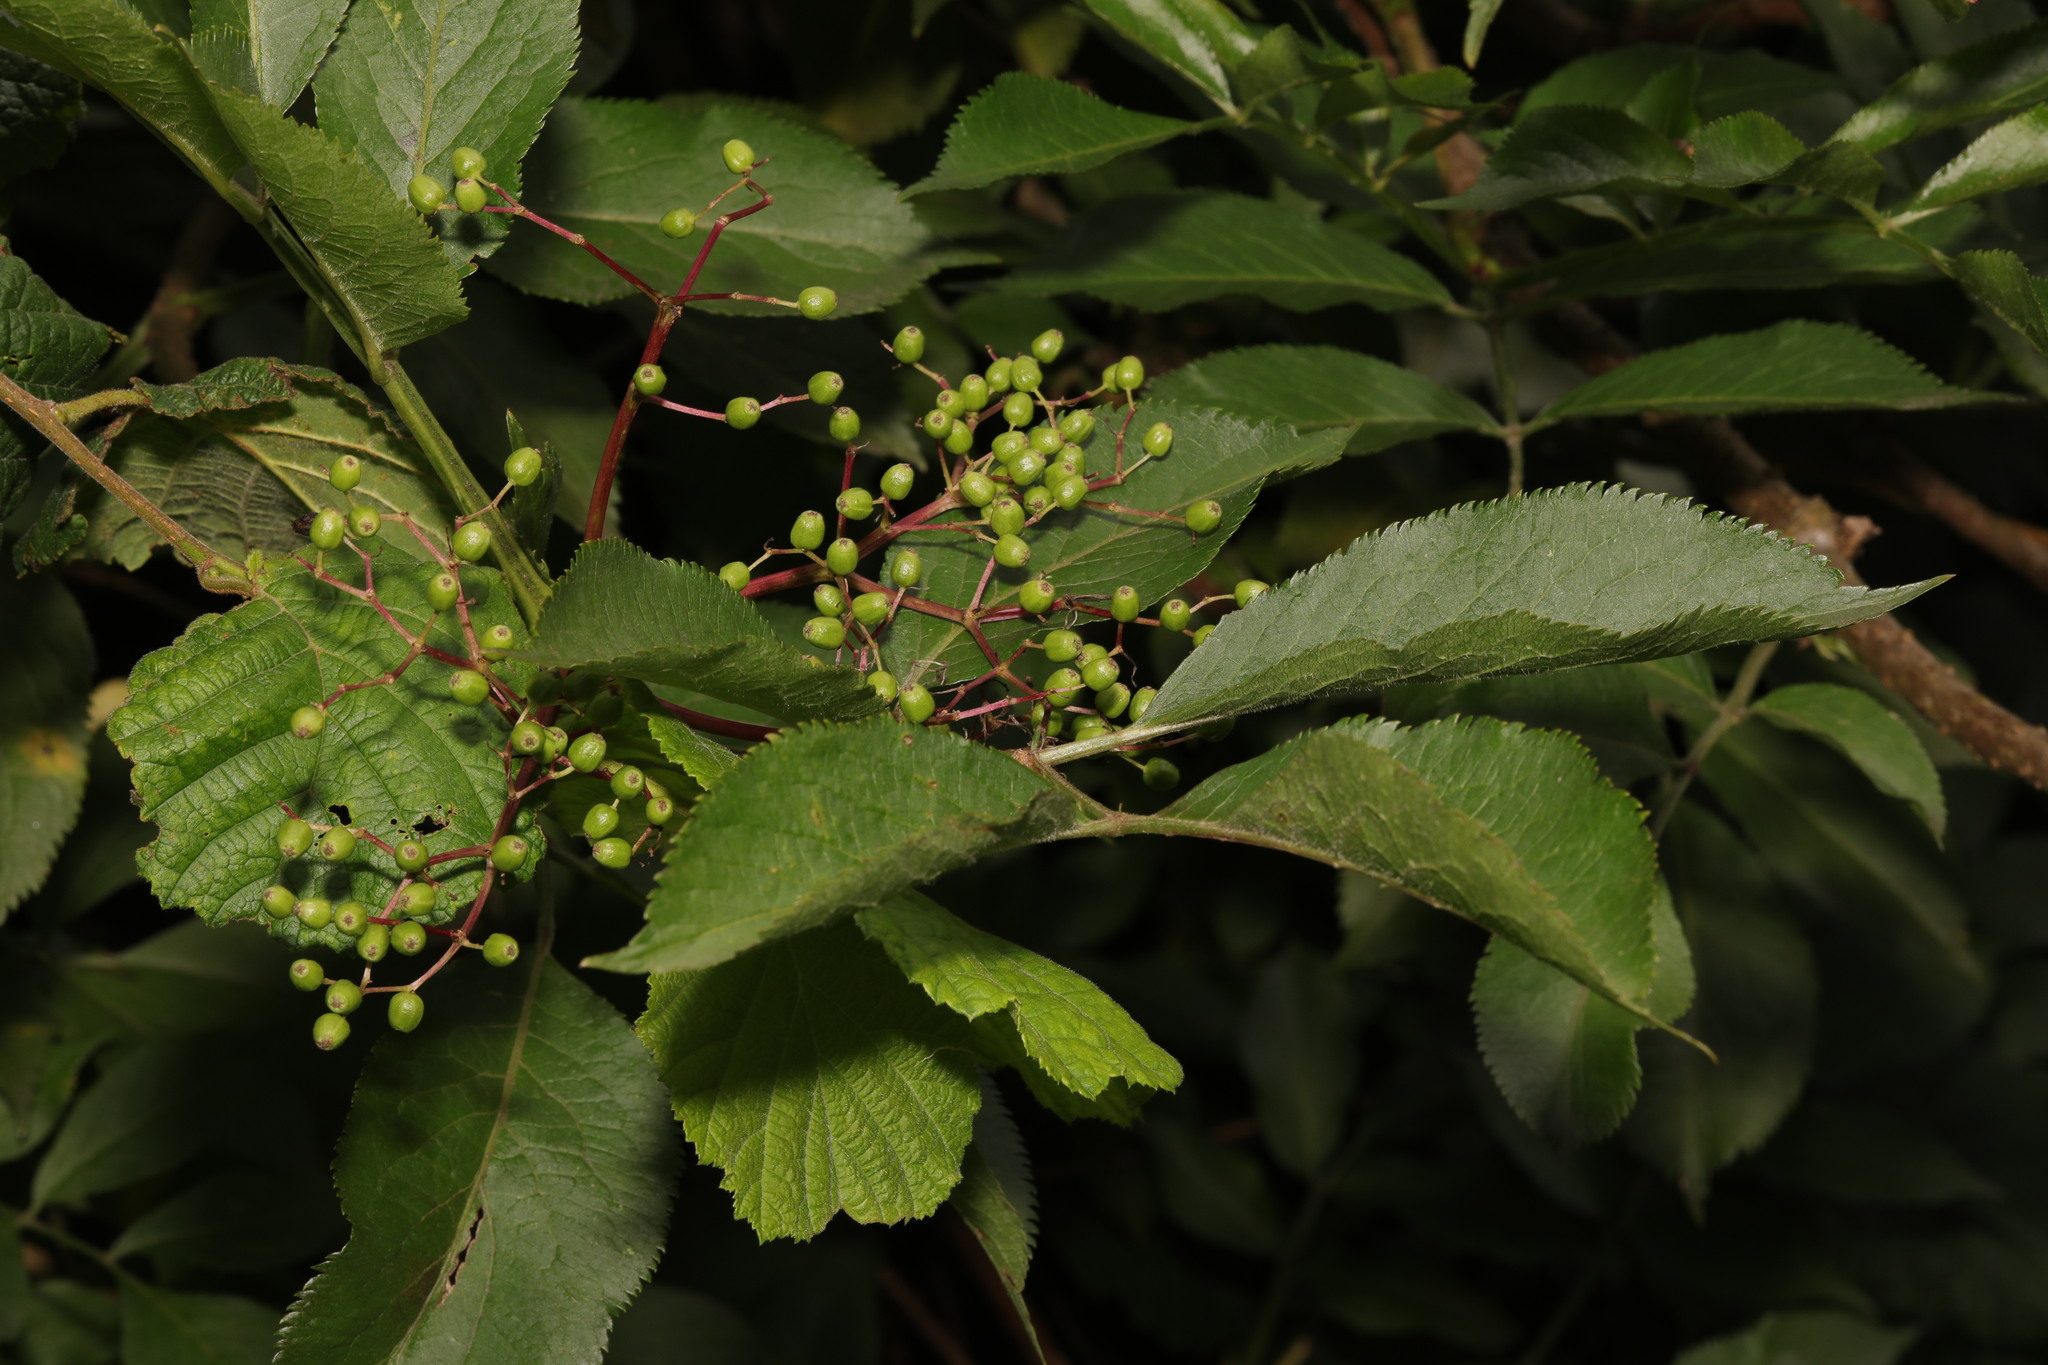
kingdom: Plantae
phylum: Tracheophyta
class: Magnoliopsida
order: Dipsacales
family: Viburnaceae
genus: Sambucus
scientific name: Sambucus nigra
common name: Elder
